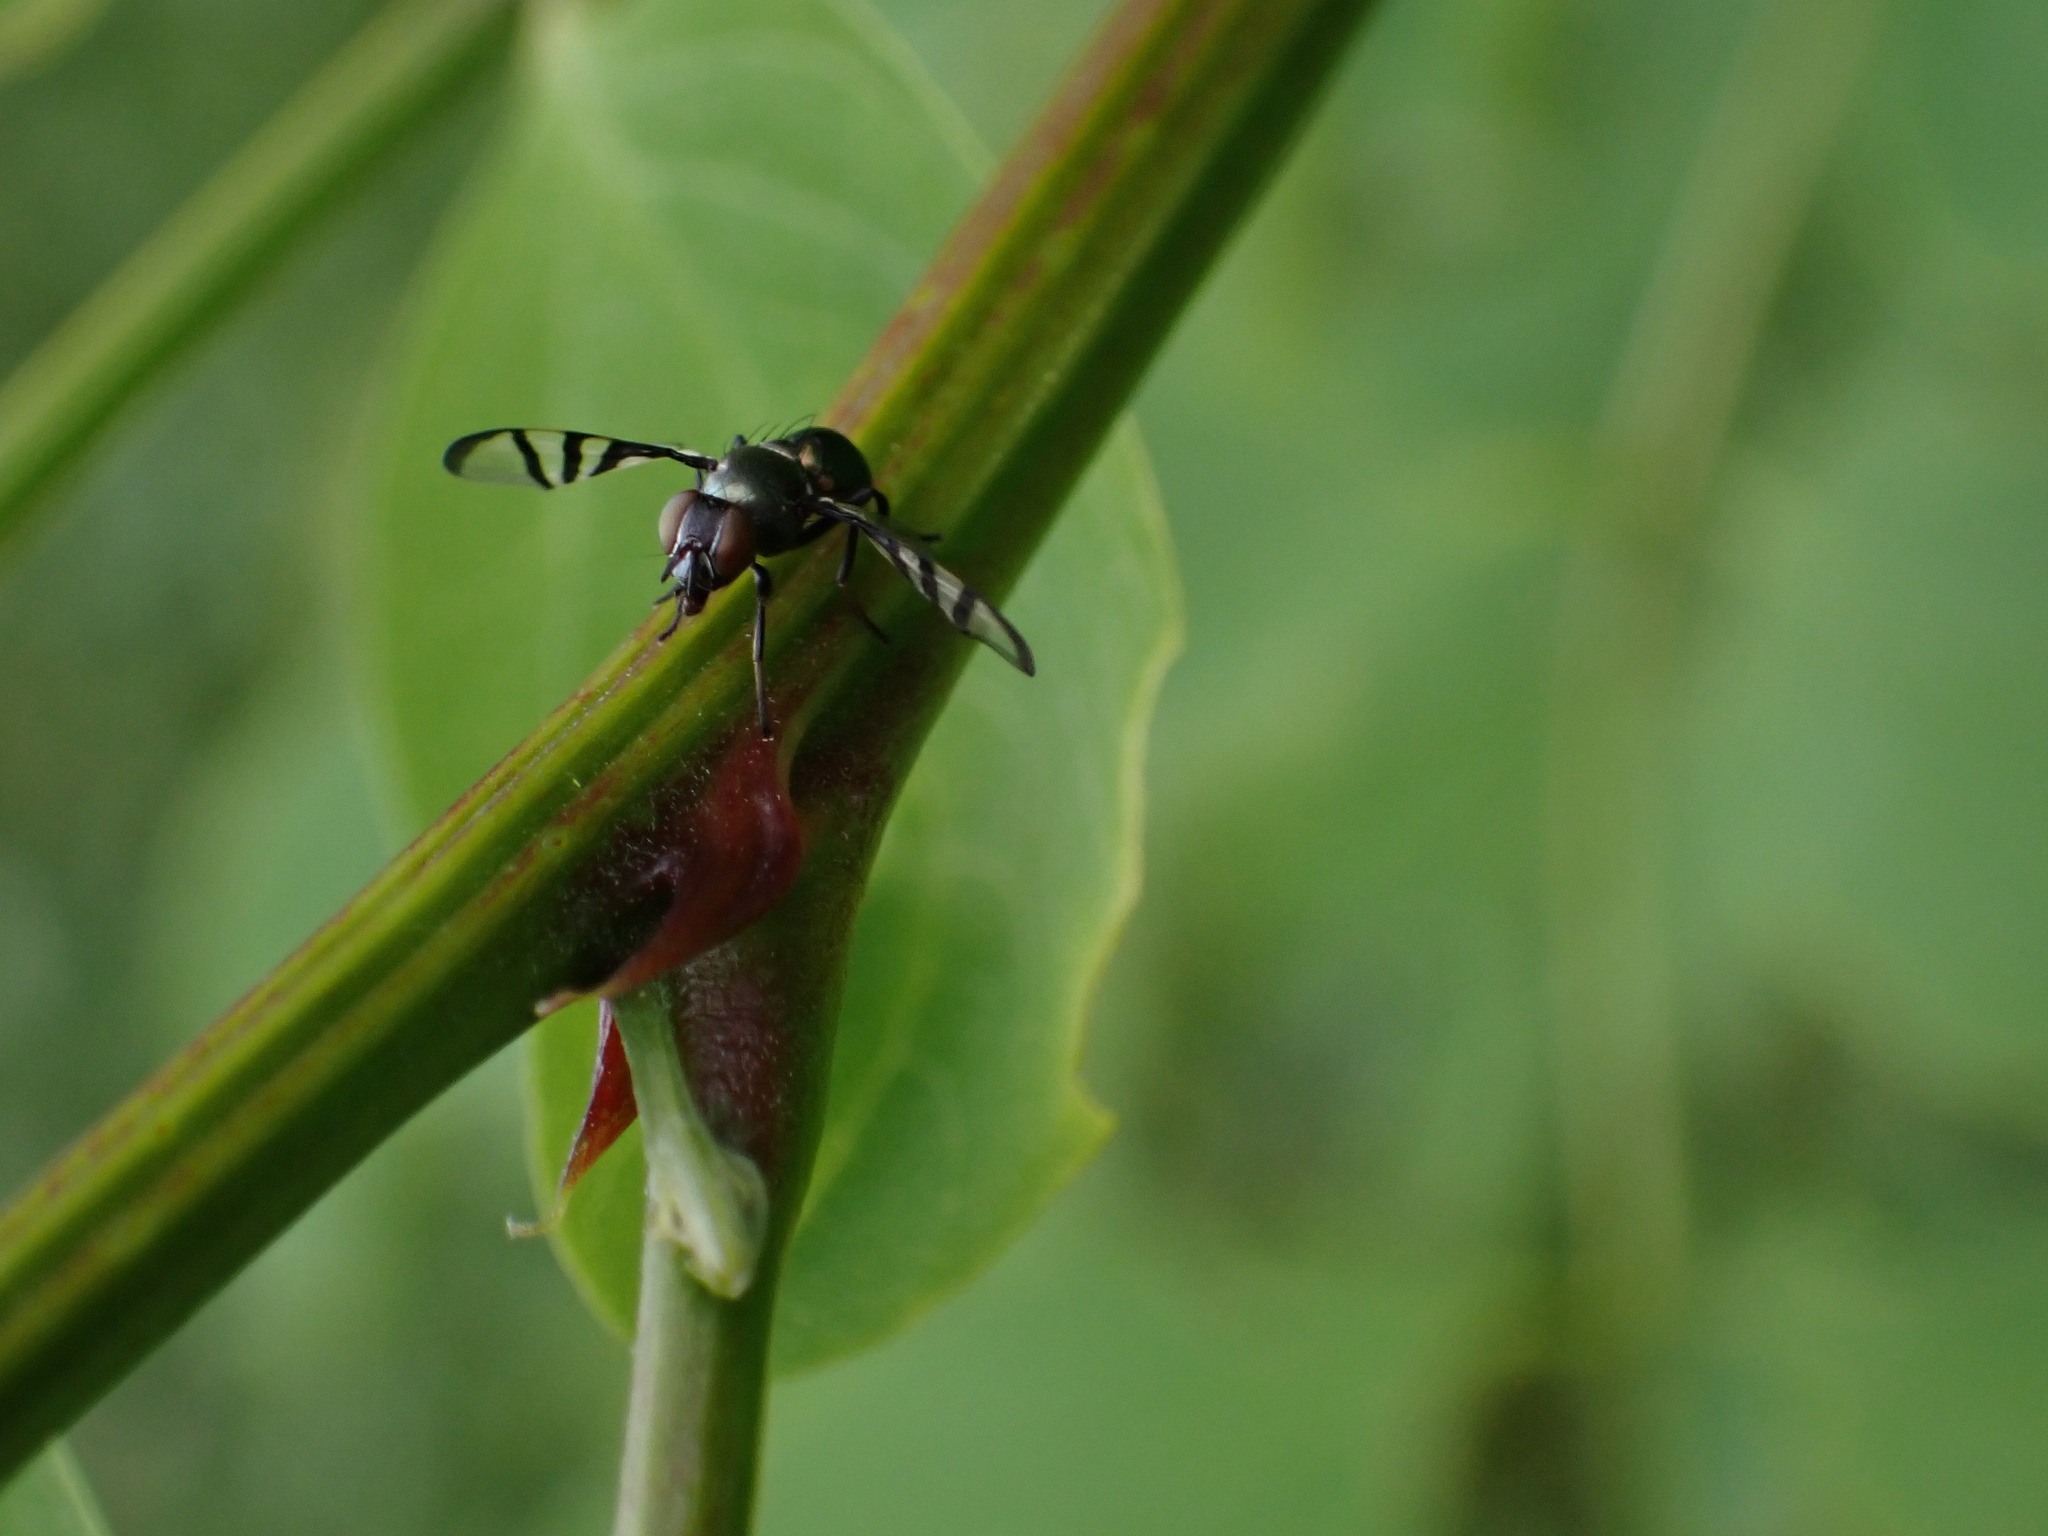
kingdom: Animalia
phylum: Arthropoda
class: Insecta
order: Diptera
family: Platystomatidae
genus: Rivellia
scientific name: Rivellia
